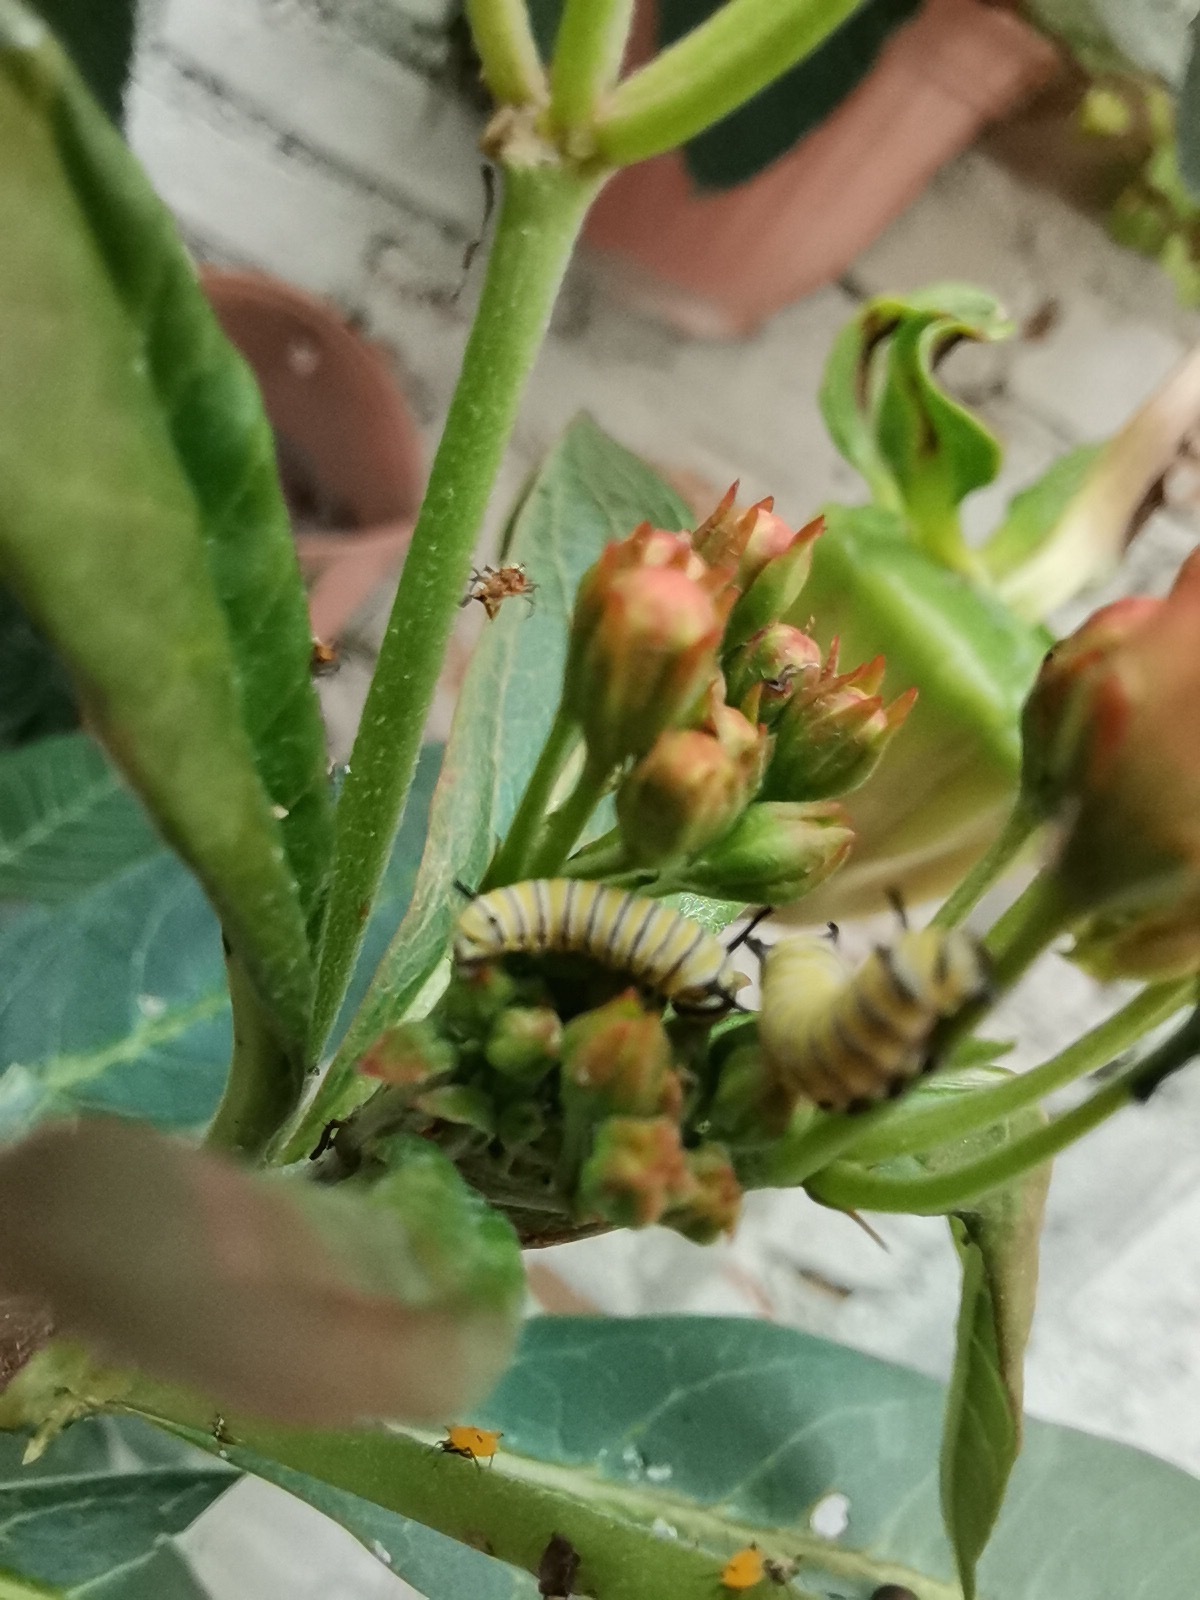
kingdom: Animalia
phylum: Arthropoda
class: Insecta
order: Lepidoptera
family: Nymphalidae
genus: Danaus
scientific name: Danaus plexippus
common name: Monarch
